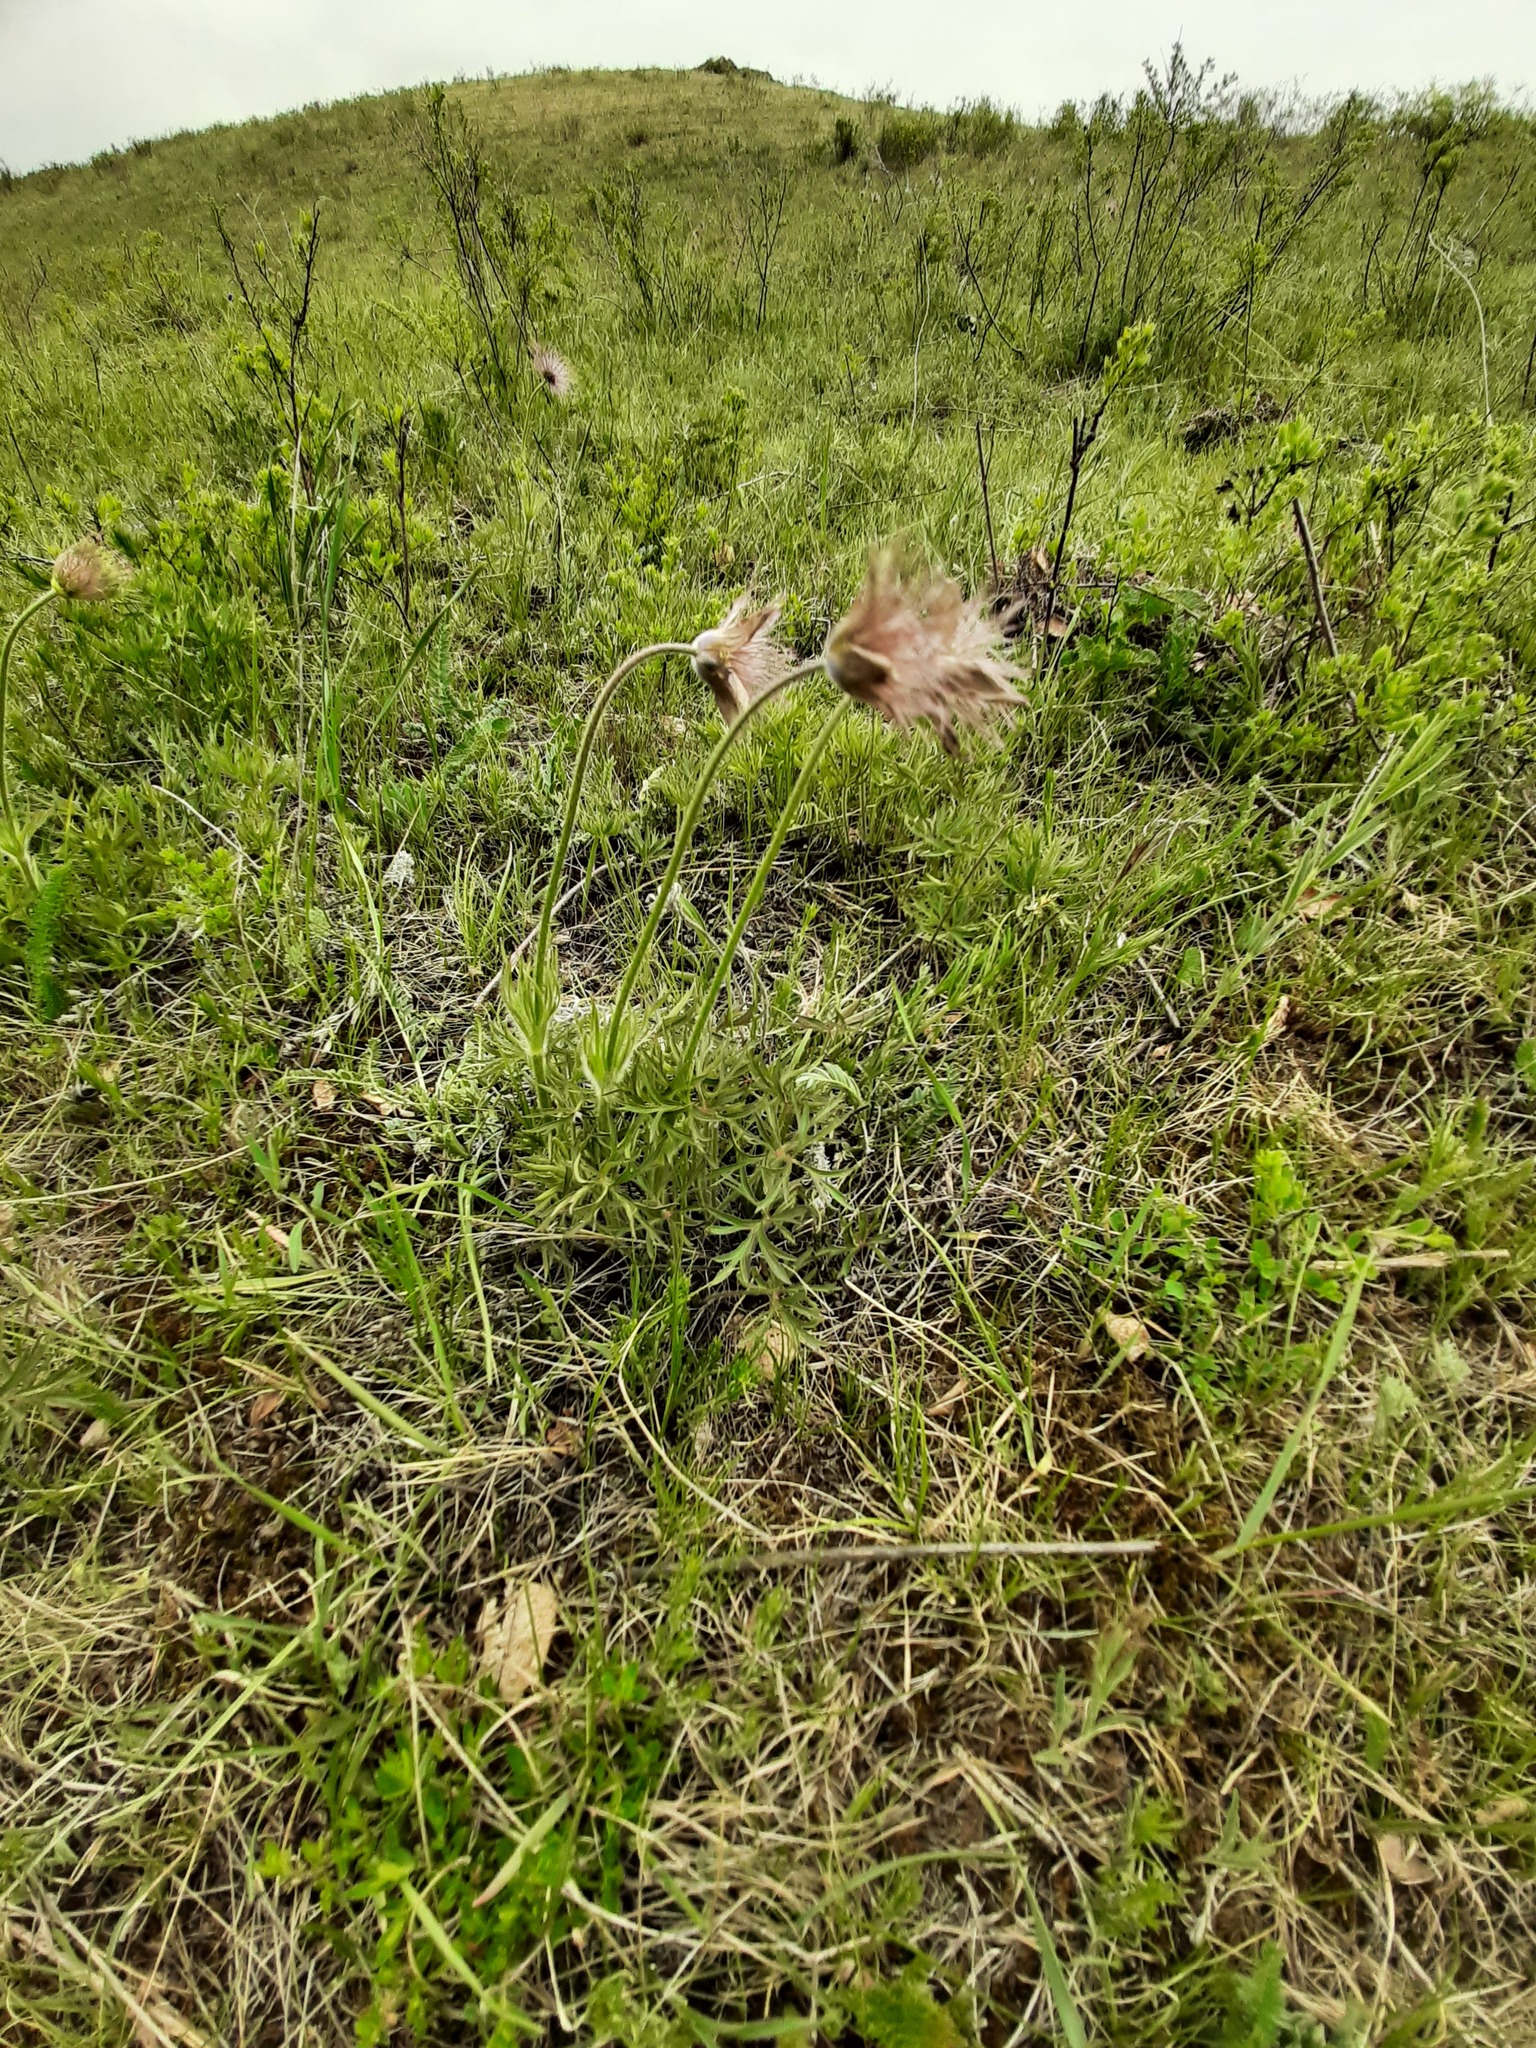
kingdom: Plantae
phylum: Tracheophyta
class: Magnoliopsida
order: Ranunculales
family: Ranunculaceae
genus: Pulsatilla
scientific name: Pulsatilla patens
